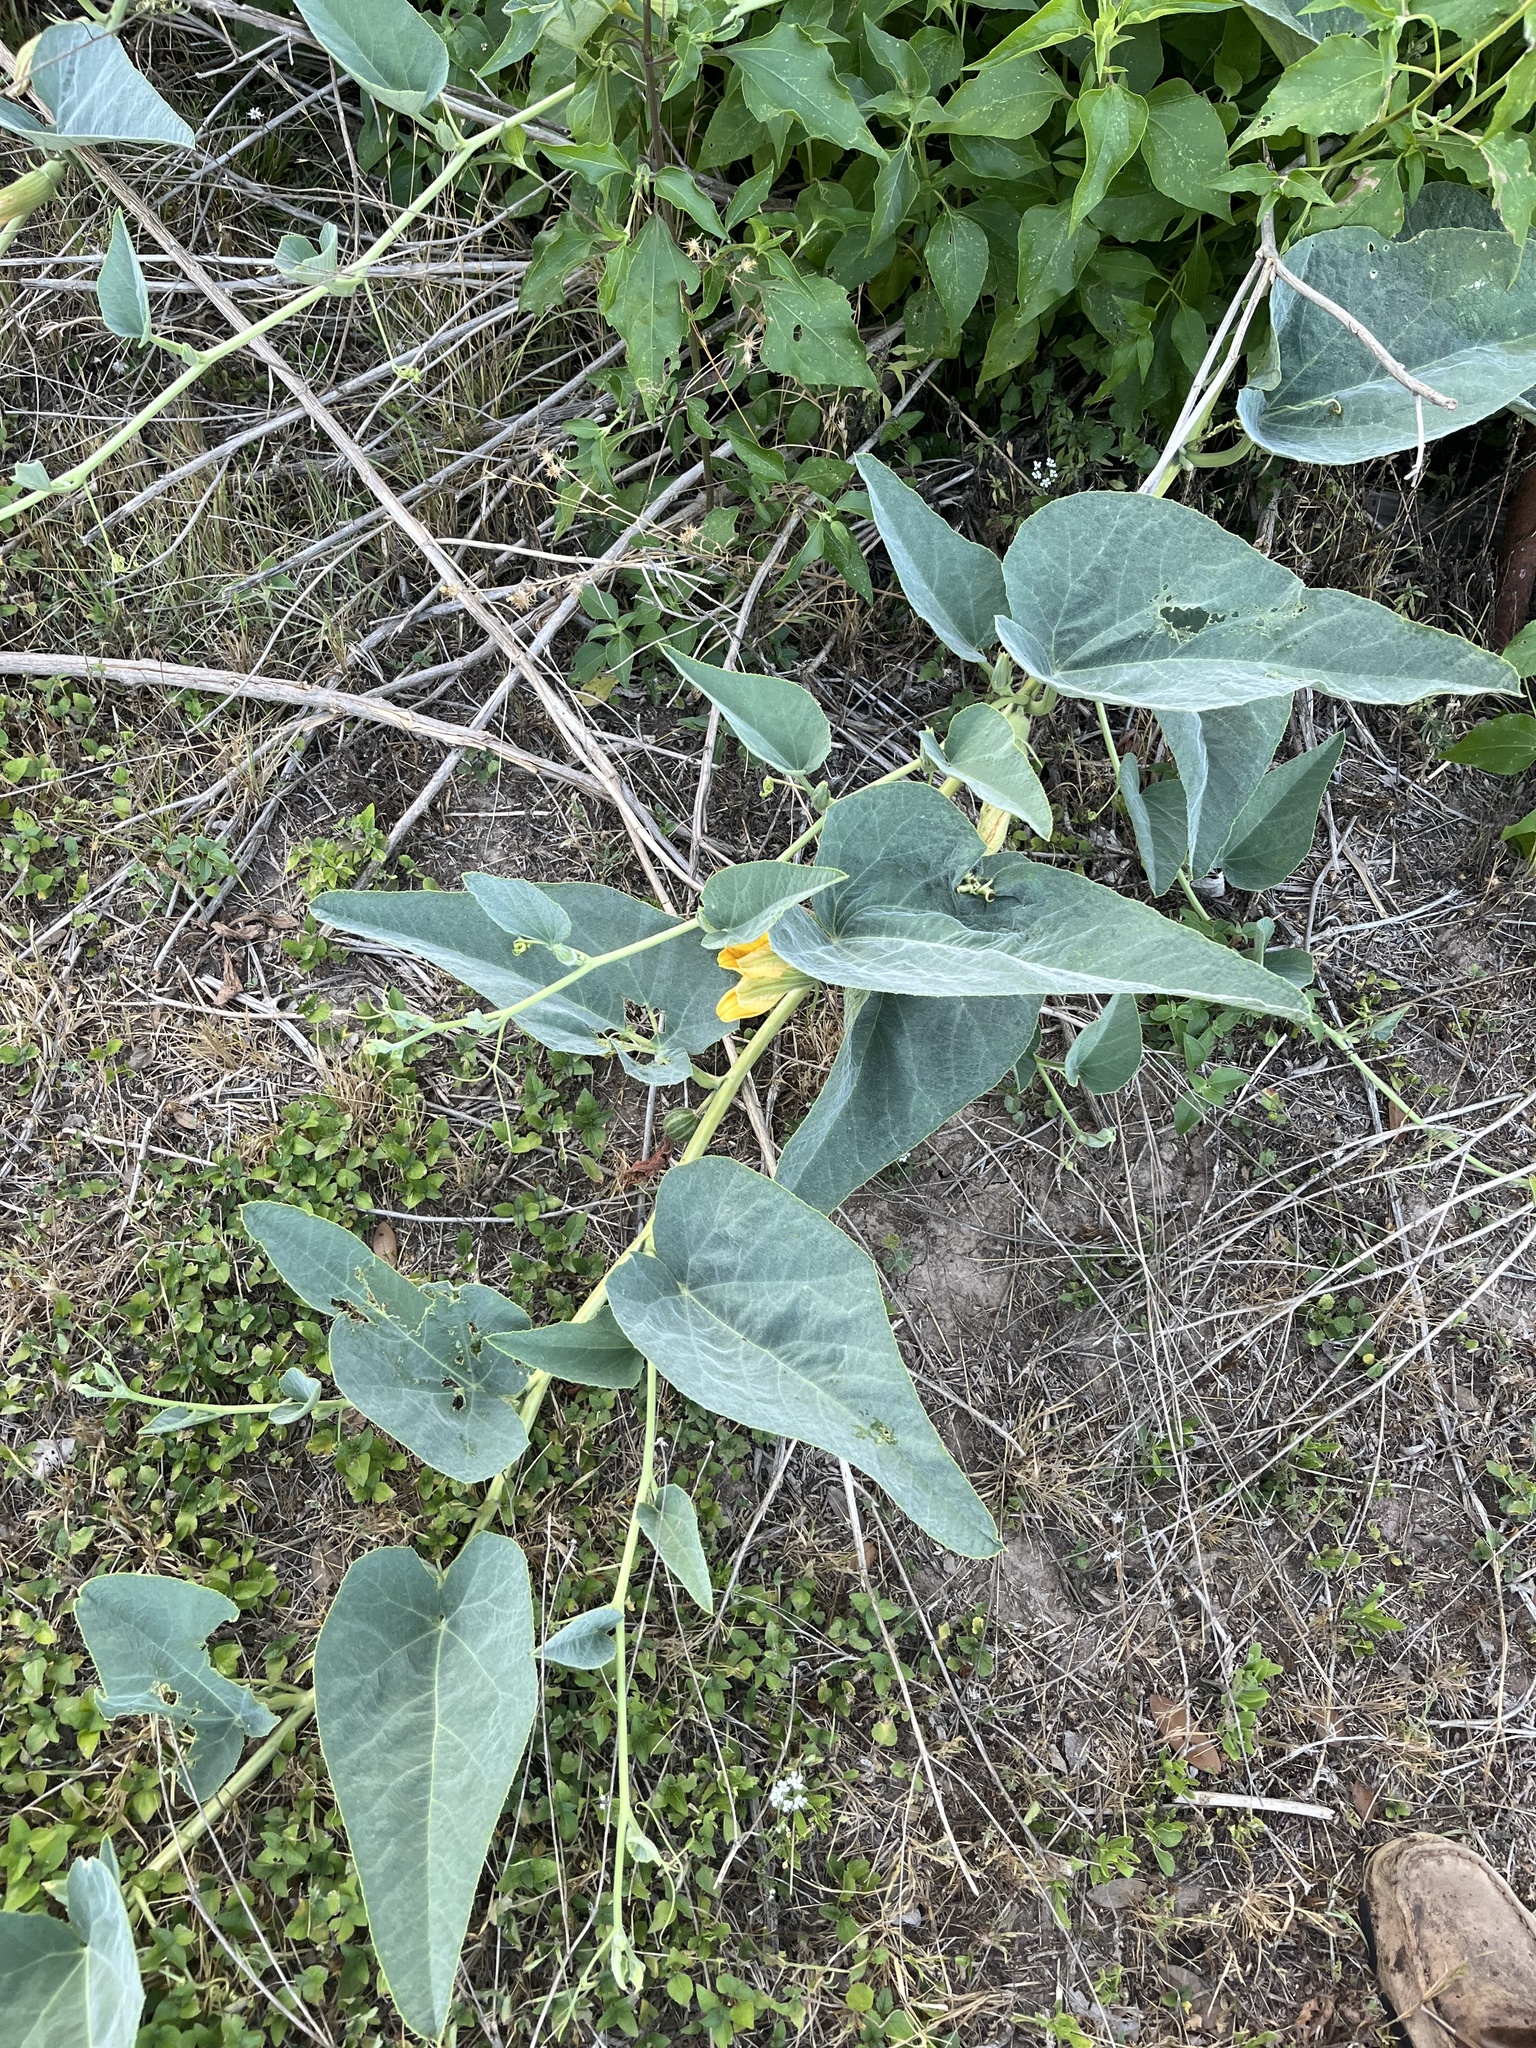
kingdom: Plantae
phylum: Tracheophyta
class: Magnoliopsida
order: Cucurbitales
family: Cucurbitaceae
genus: Cucurbita
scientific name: Cucurbita foetidissima
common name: Buffalo gourd
